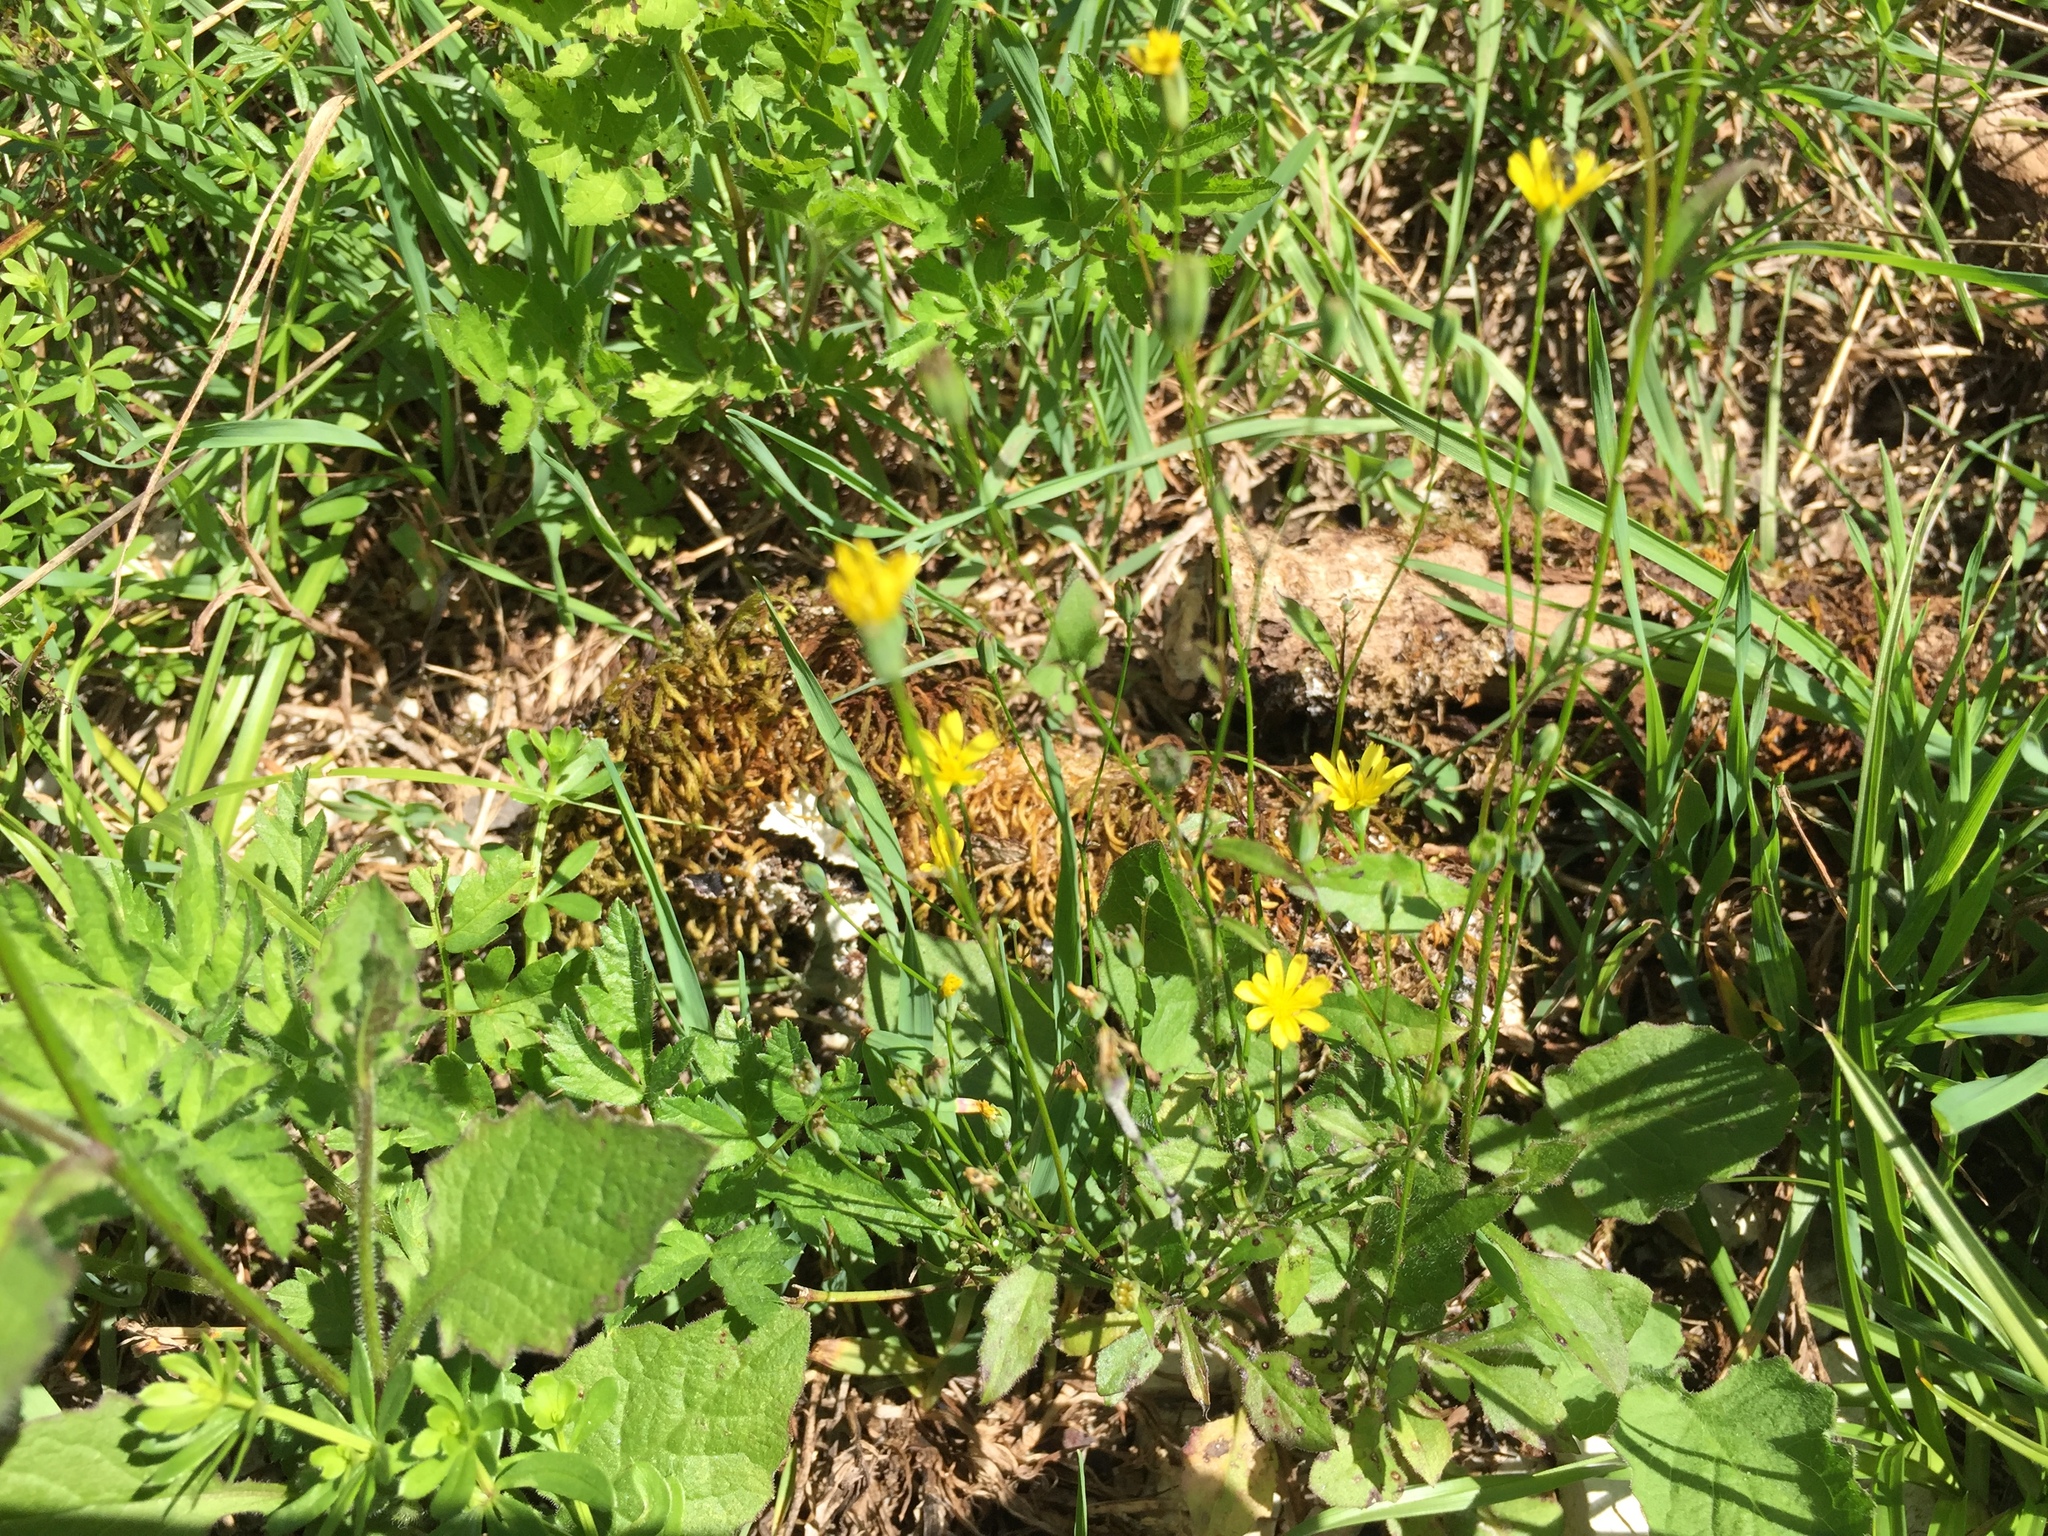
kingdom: Plantae
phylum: Tracheophyta
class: Magnoliopsida
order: Asterales
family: Asteraceae
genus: Lapsana
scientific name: Lapsana communis
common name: Nipplewort
